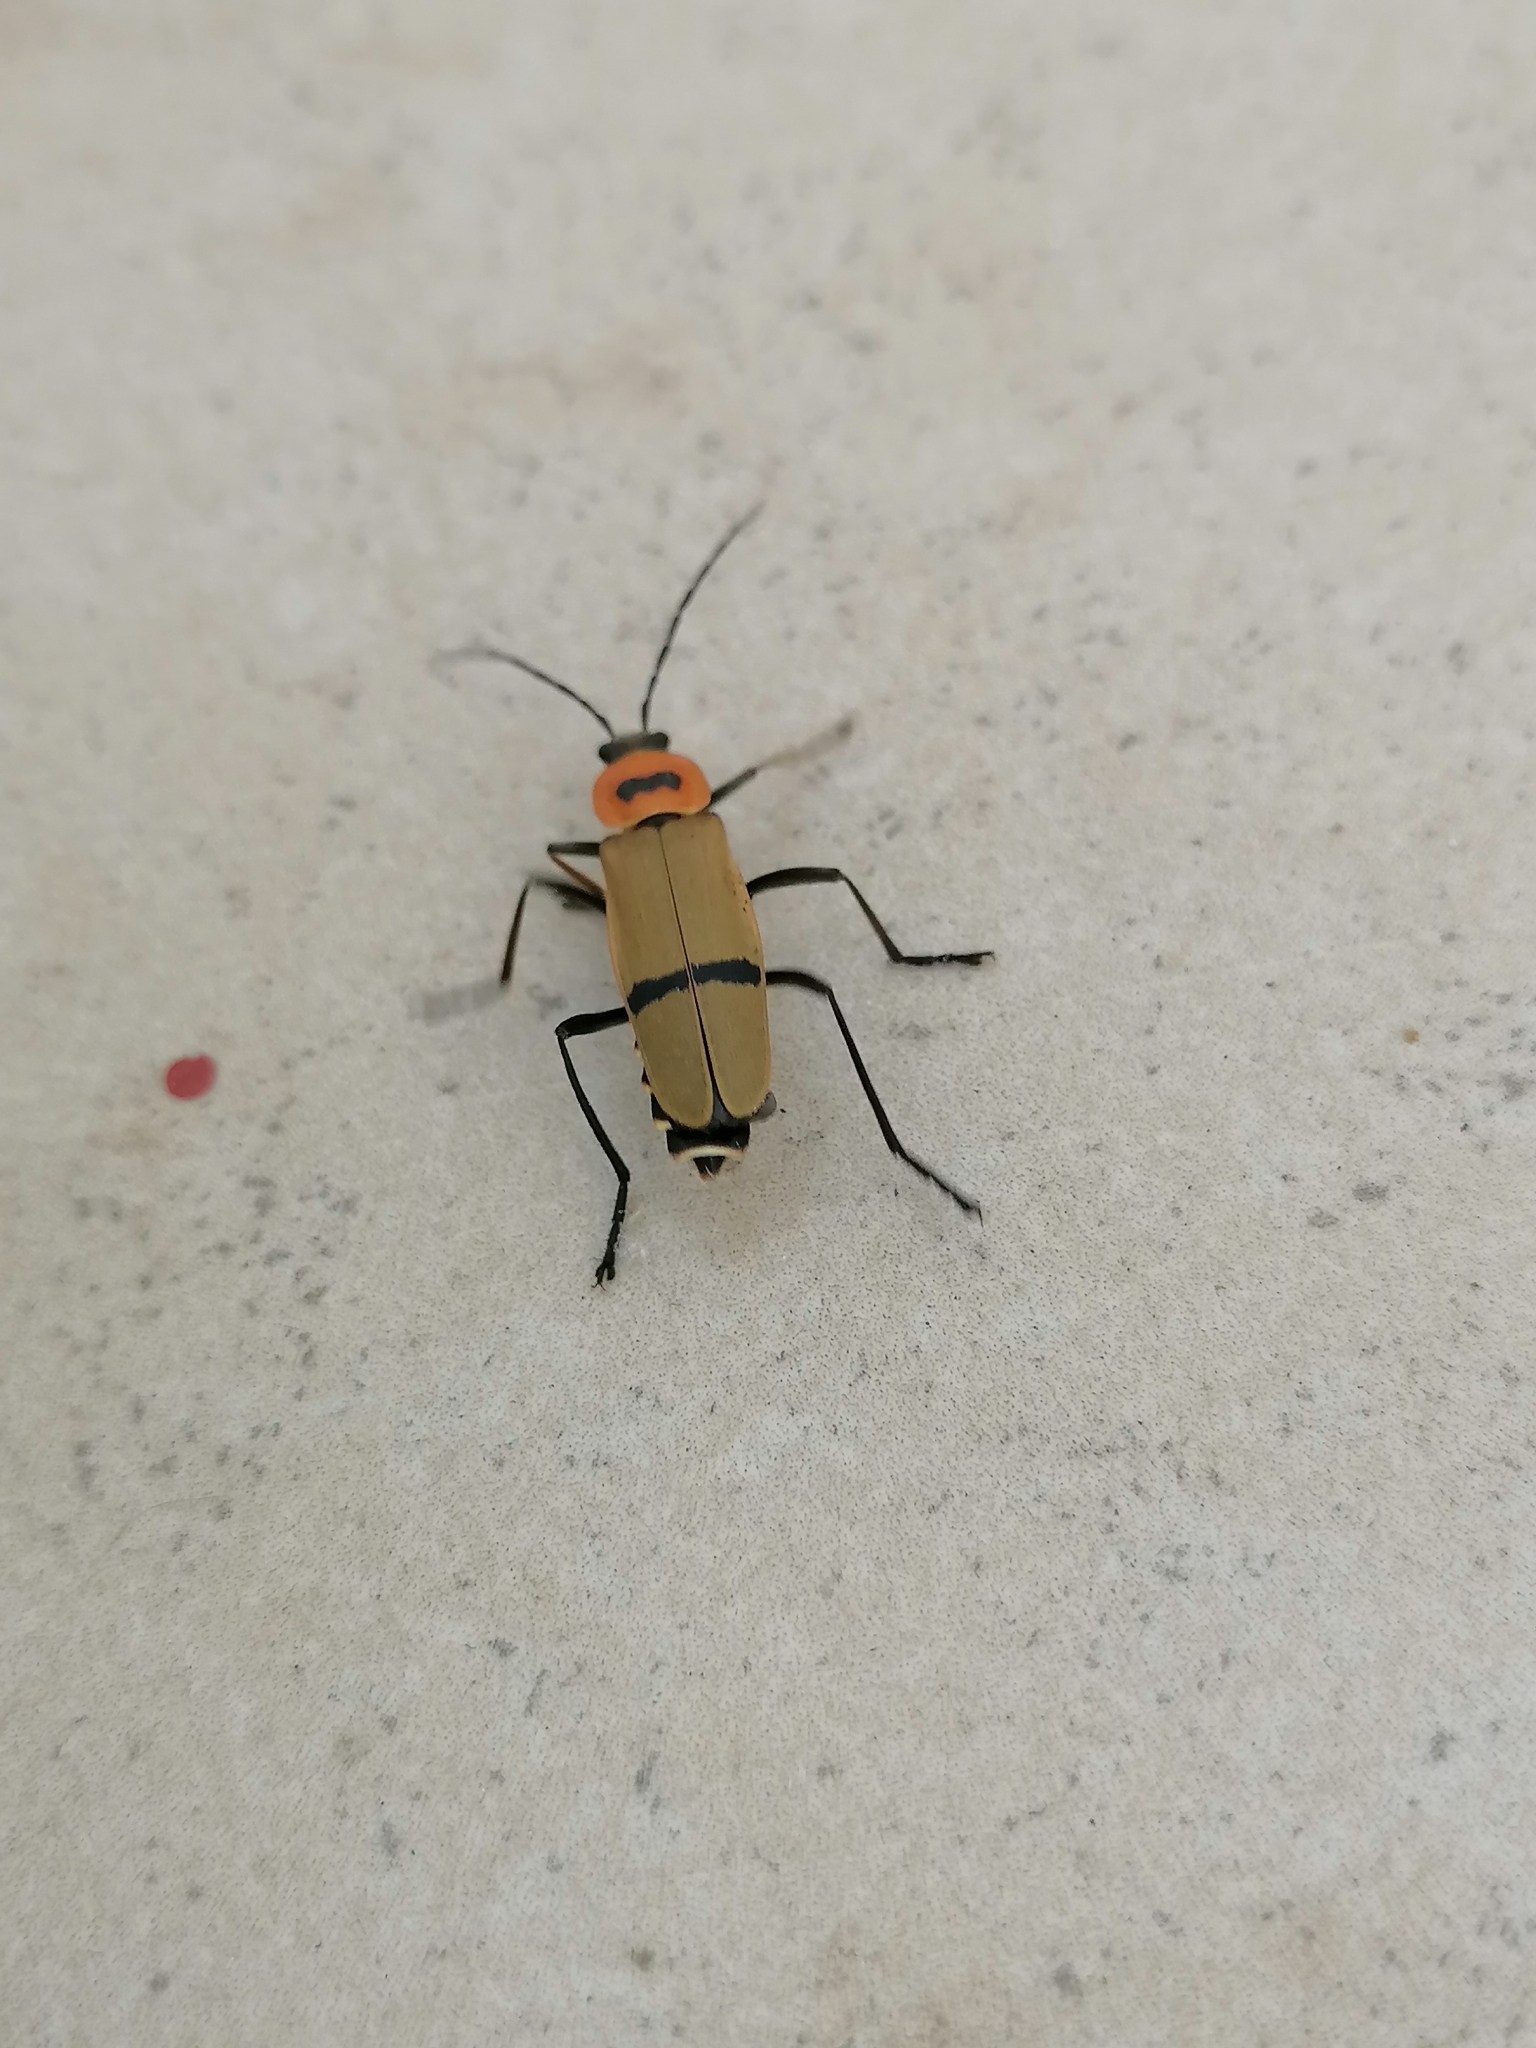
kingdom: Animalia
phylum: Arthropoda
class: Insecta
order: Coleoptera
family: Cantharidae
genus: Chauliognathus
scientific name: Chauliognathus
